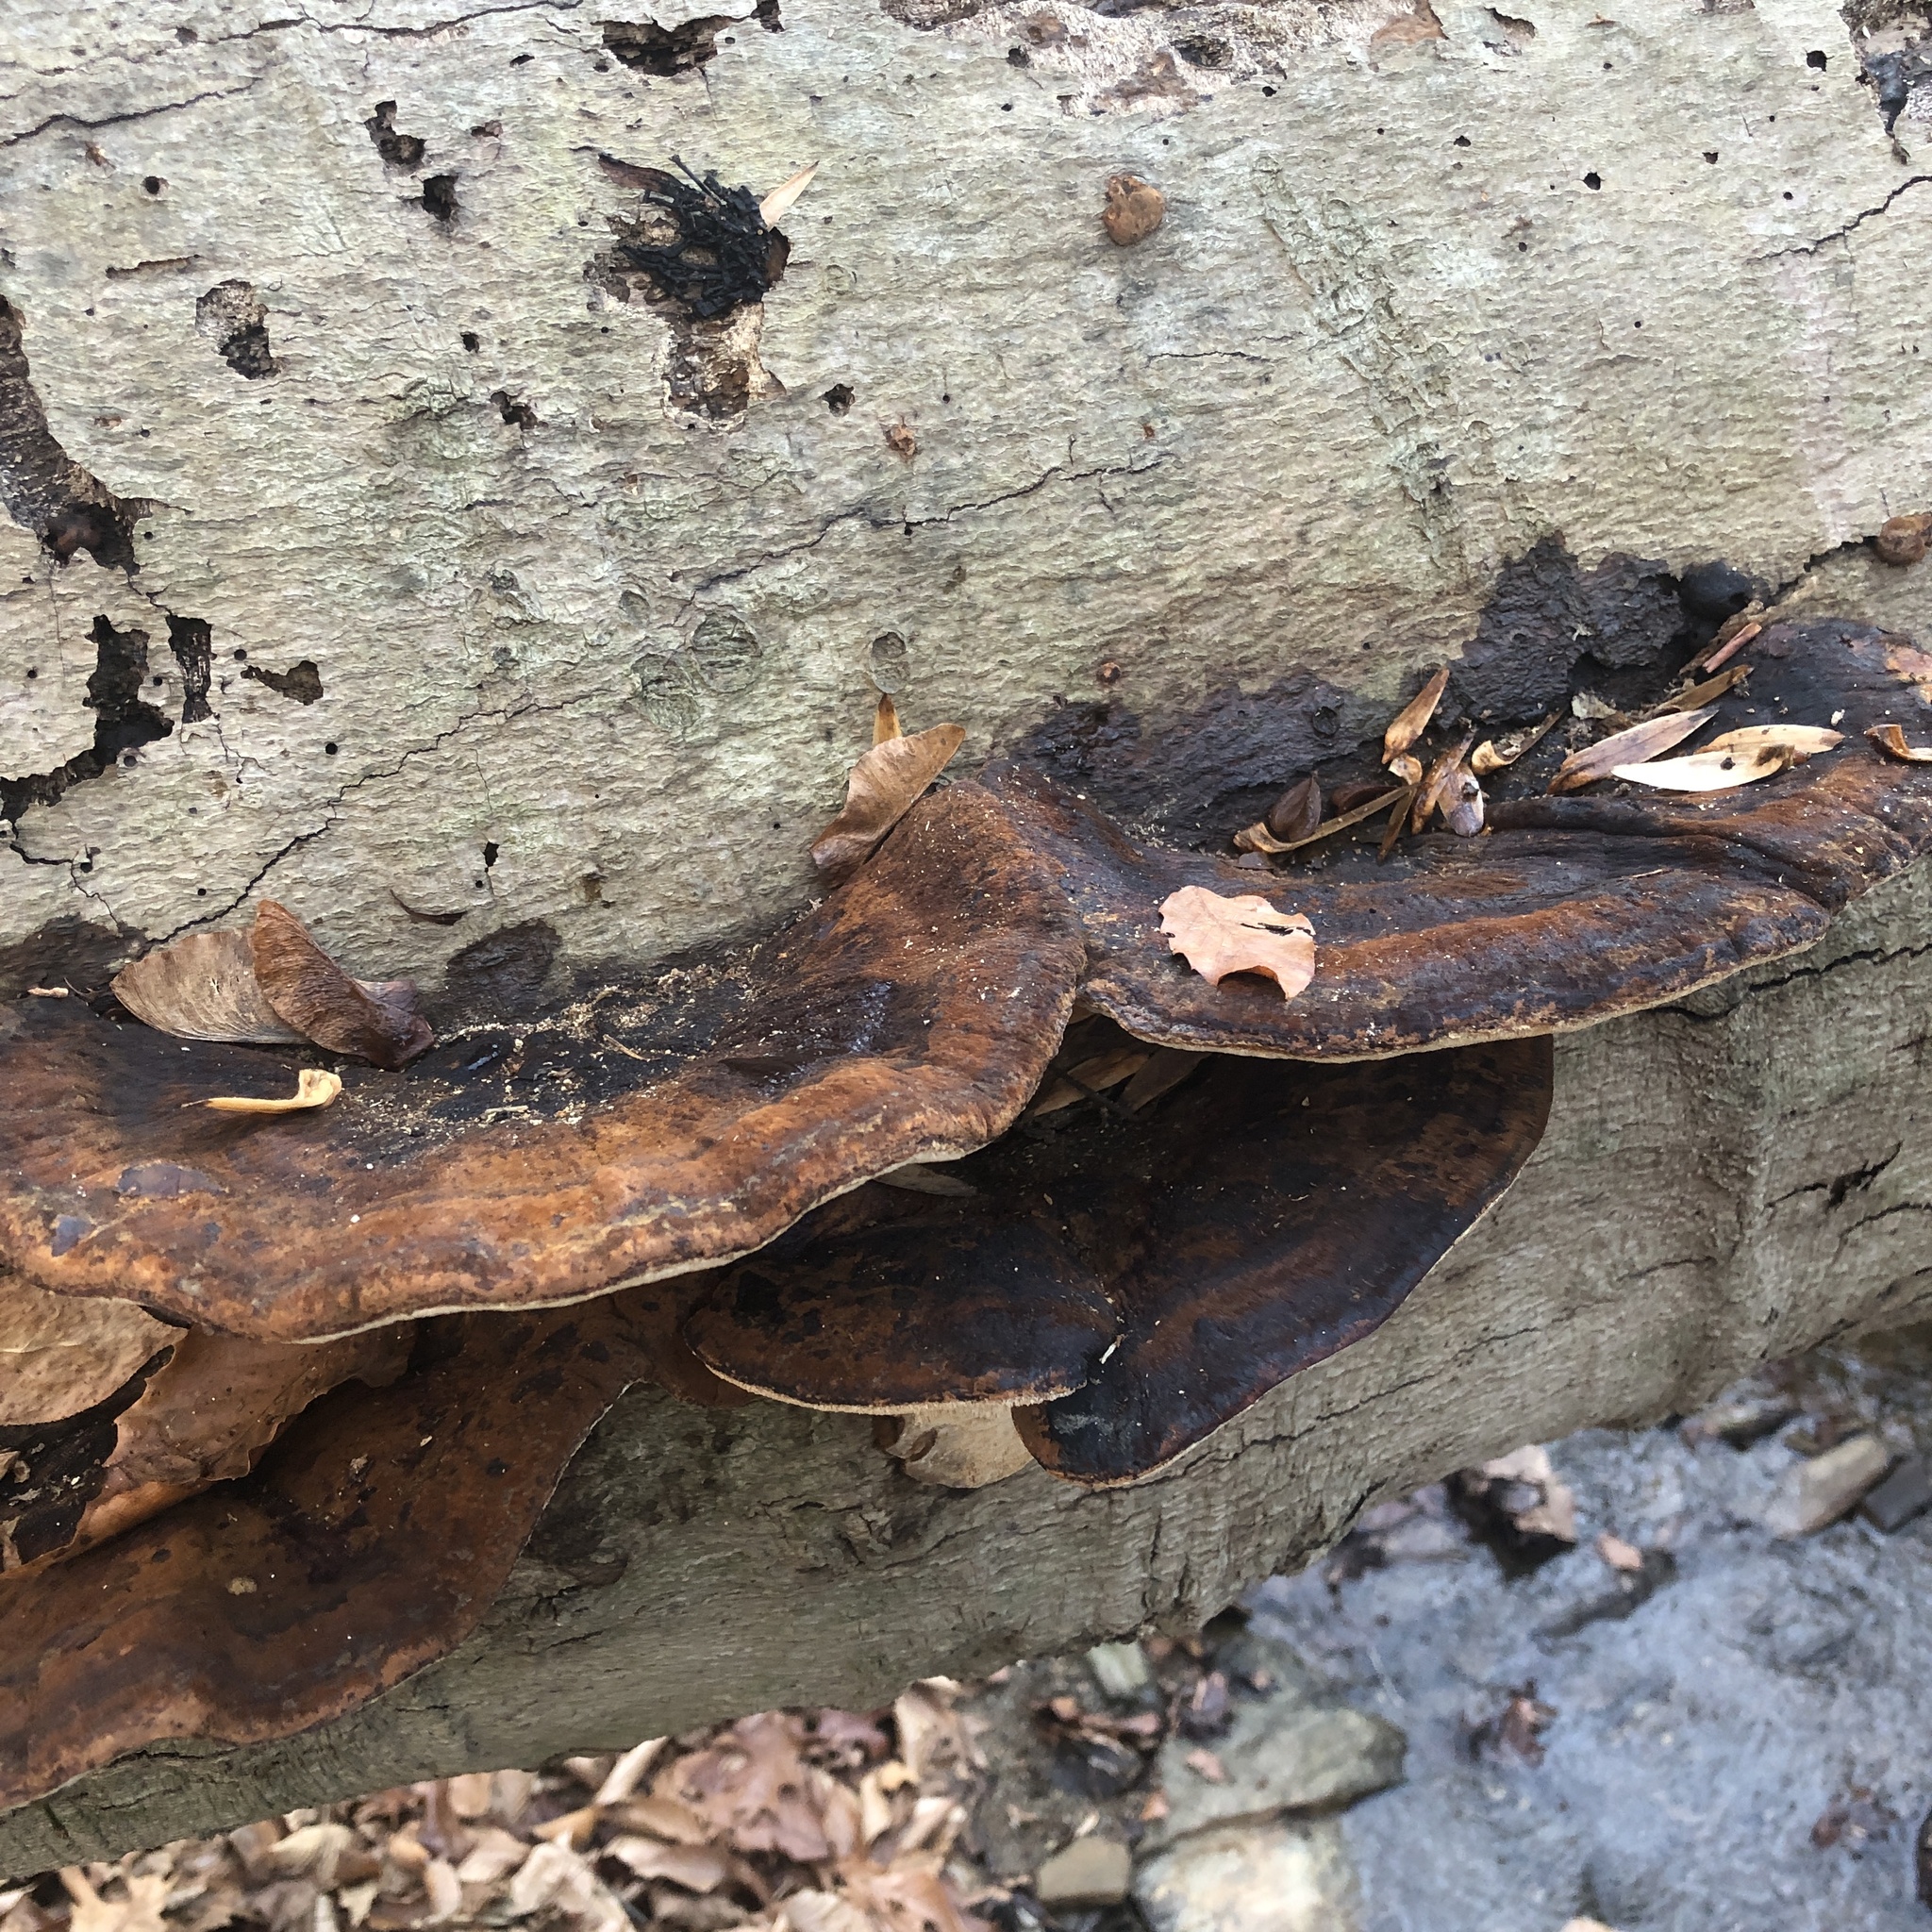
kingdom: Fungi
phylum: Basidiomycota
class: Agaricomycetes
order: Polyporales
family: Ischnodermataceae
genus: Ischnoderma
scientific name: Ischnoderma resinosum
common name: Resinous polypore
